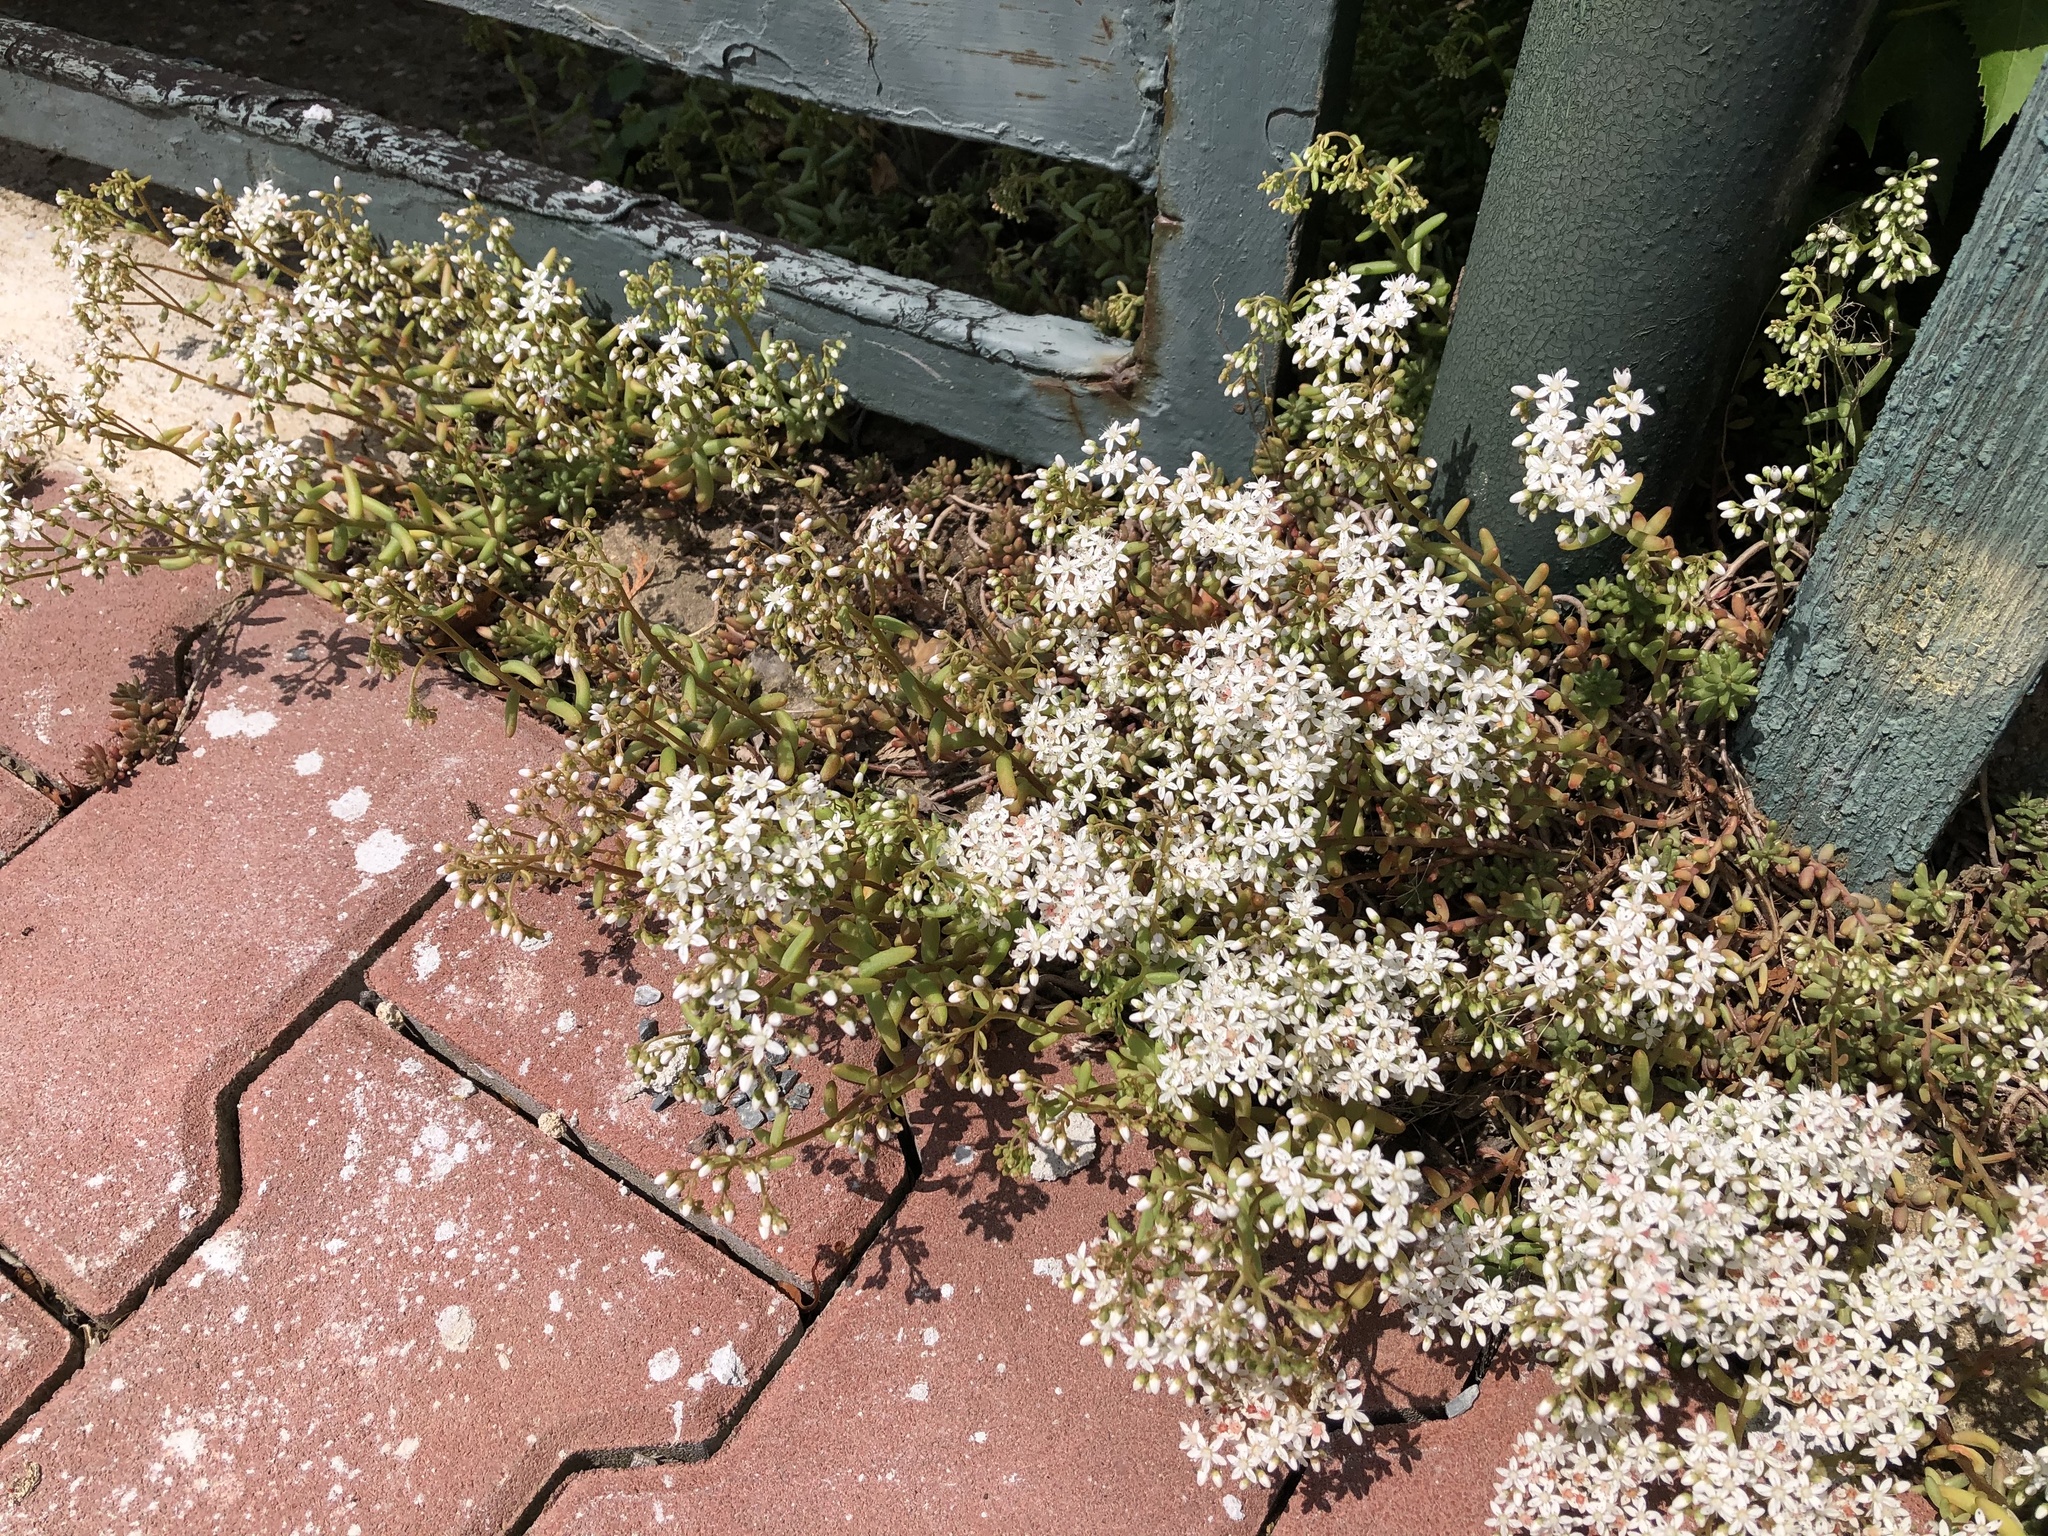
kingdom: Plantae
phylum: Tracheophyta
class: Magnoliopsida
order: Saxifragales
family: Crassulaceae
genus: Sedum
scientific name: Sedum album
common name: White stonecrop
